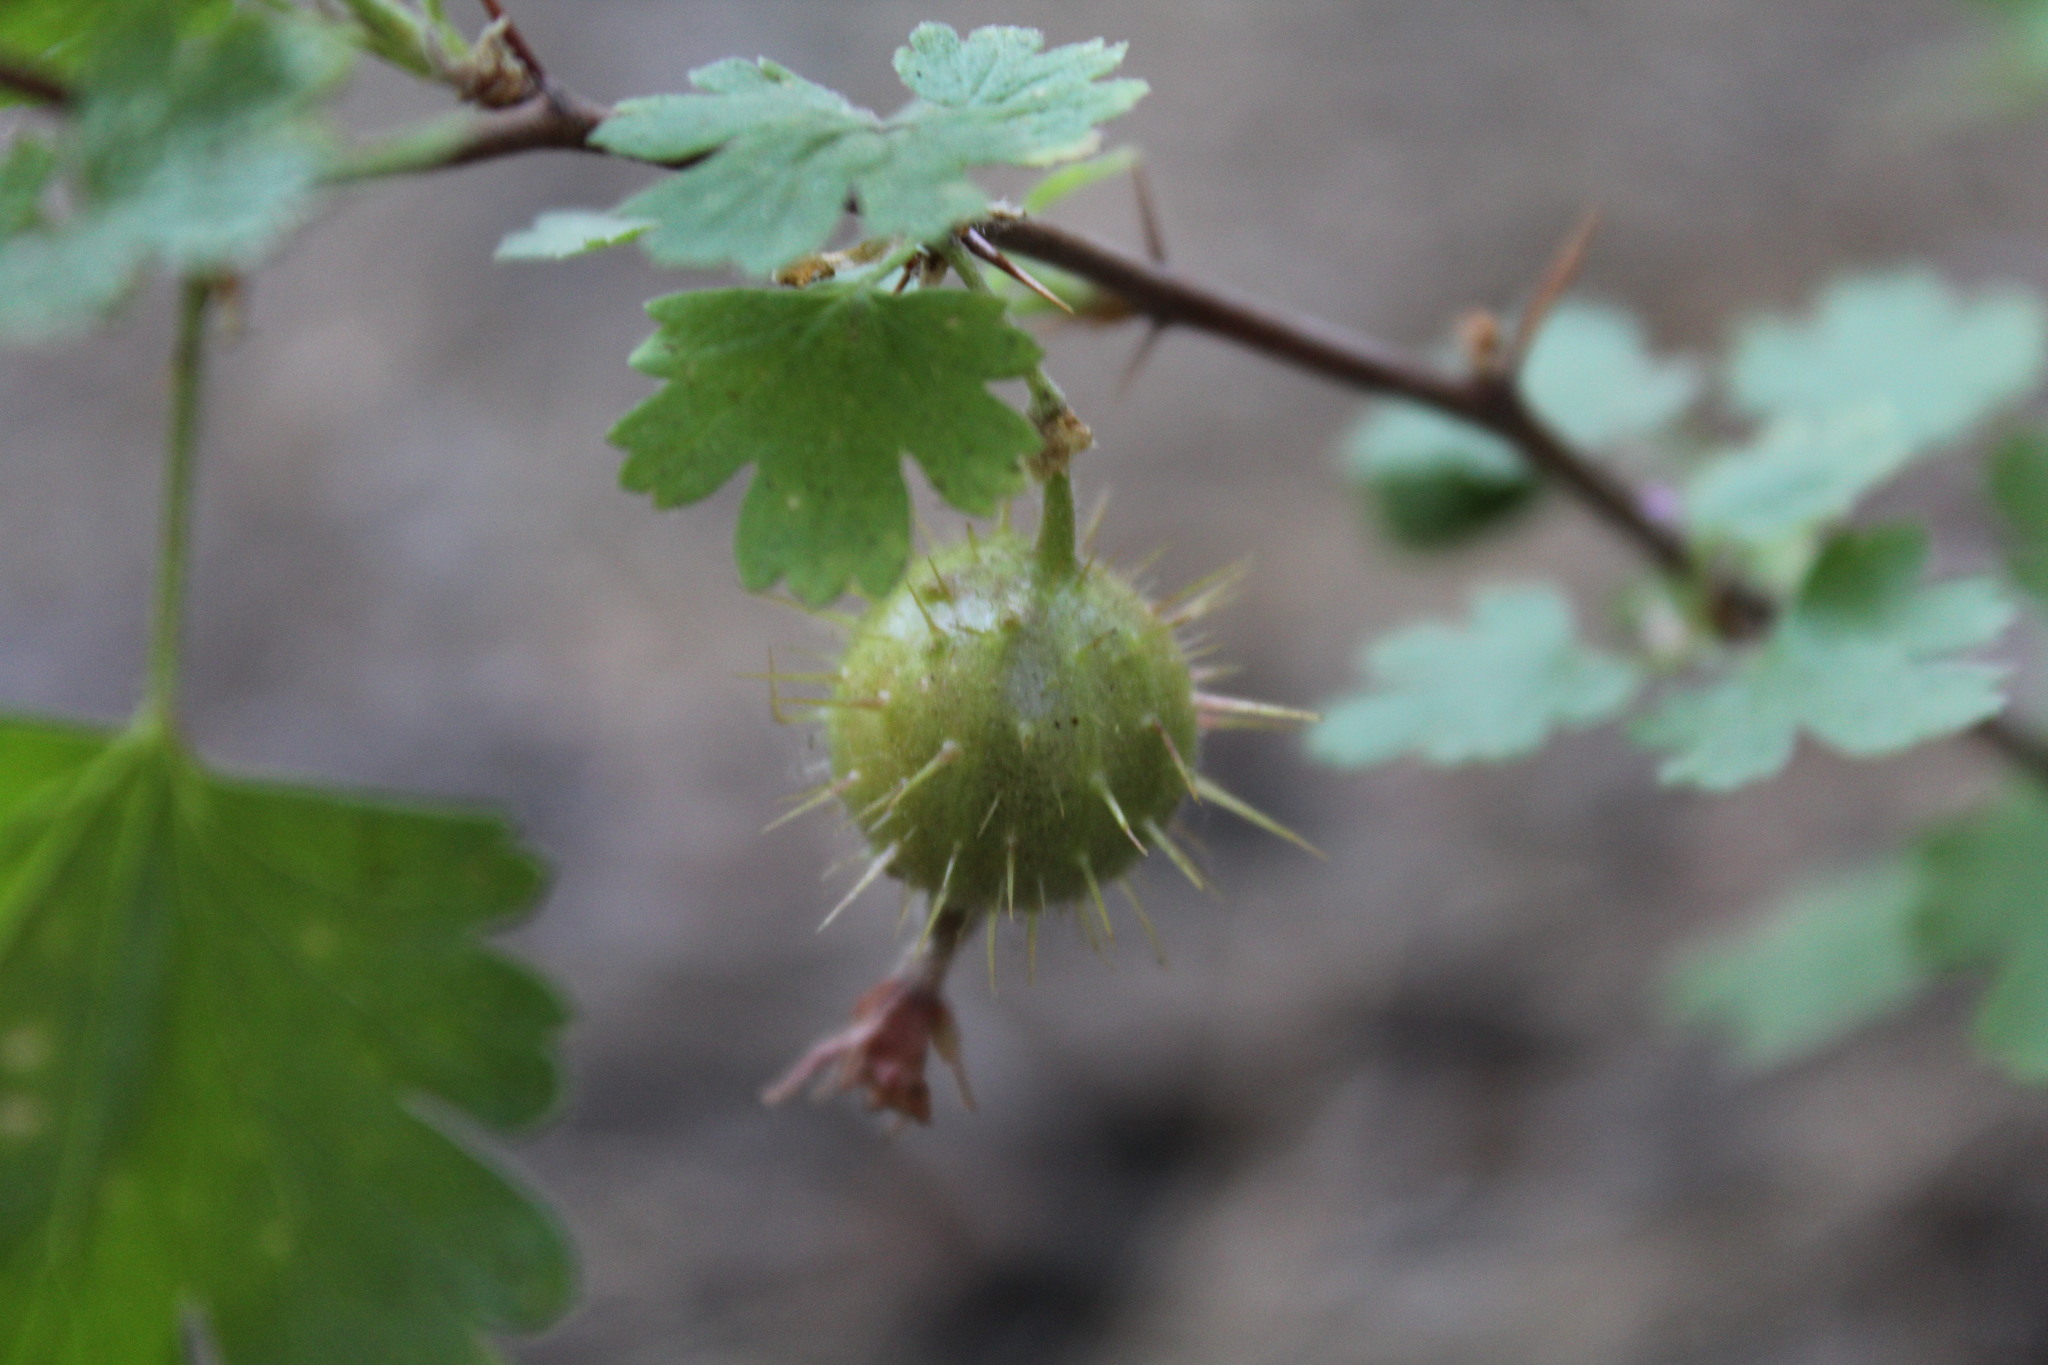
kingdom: Plantae
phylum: Tracheophyta
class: Magnoliopsida
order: Saxifragales
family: Grossulariaceae
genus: Ribes
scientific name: Ribes roezlii
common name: Sierra gooseberry
